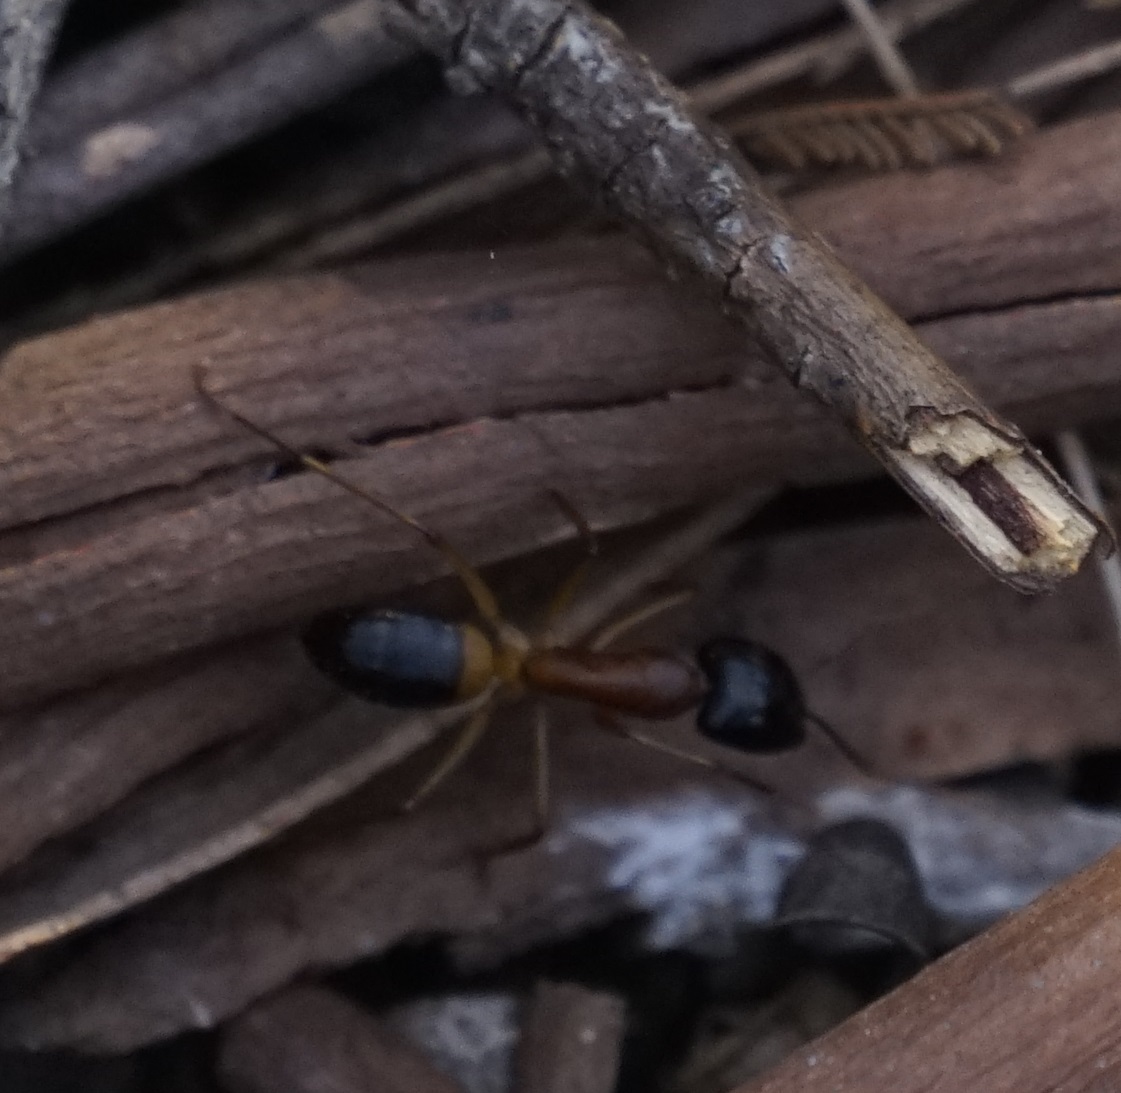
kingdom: Animalia
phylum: Arthropoda
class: Insecta
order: Hymenoptera
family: Formicidae
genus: Camponotus
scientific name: Camponotus consobrinus
